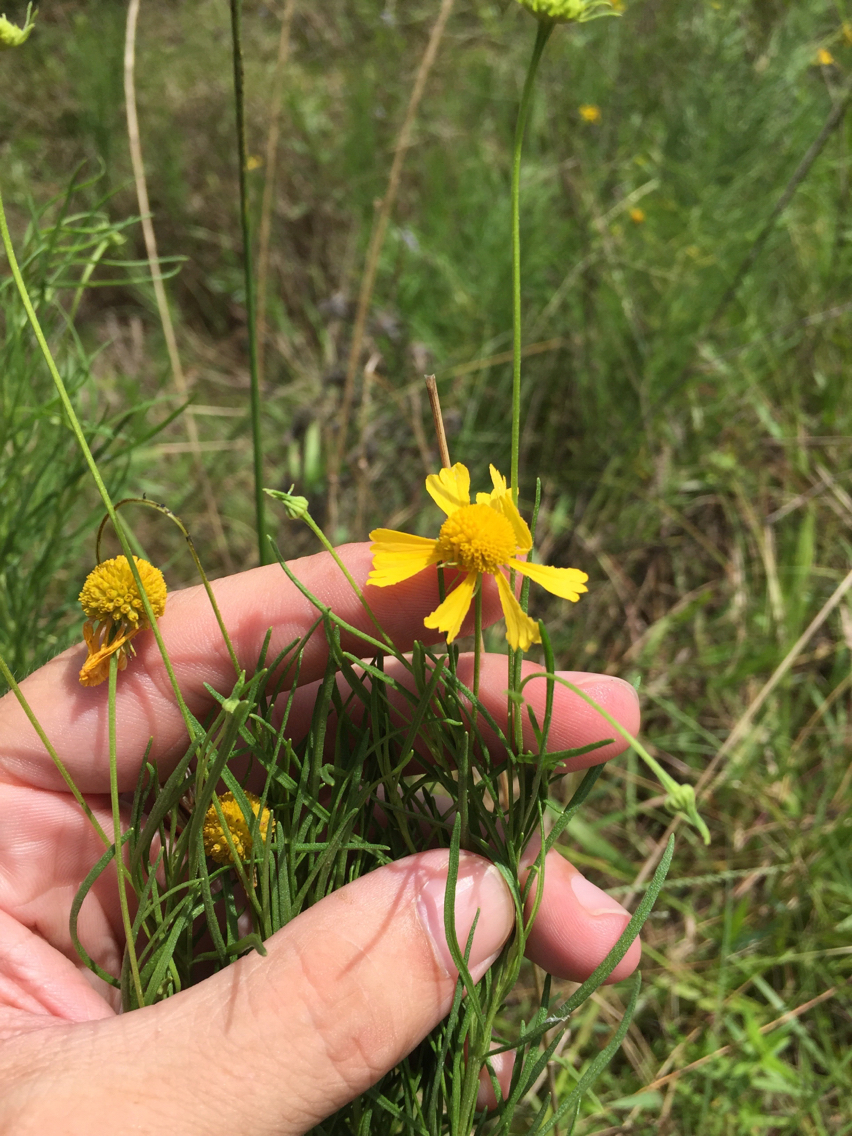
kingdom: Plantae
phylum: Tracheophyta
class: Magnoliopsida
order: Asterales
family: Asteraceae
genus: Helenium
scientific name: Helenium amarum
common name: Bitter sneezeweed
